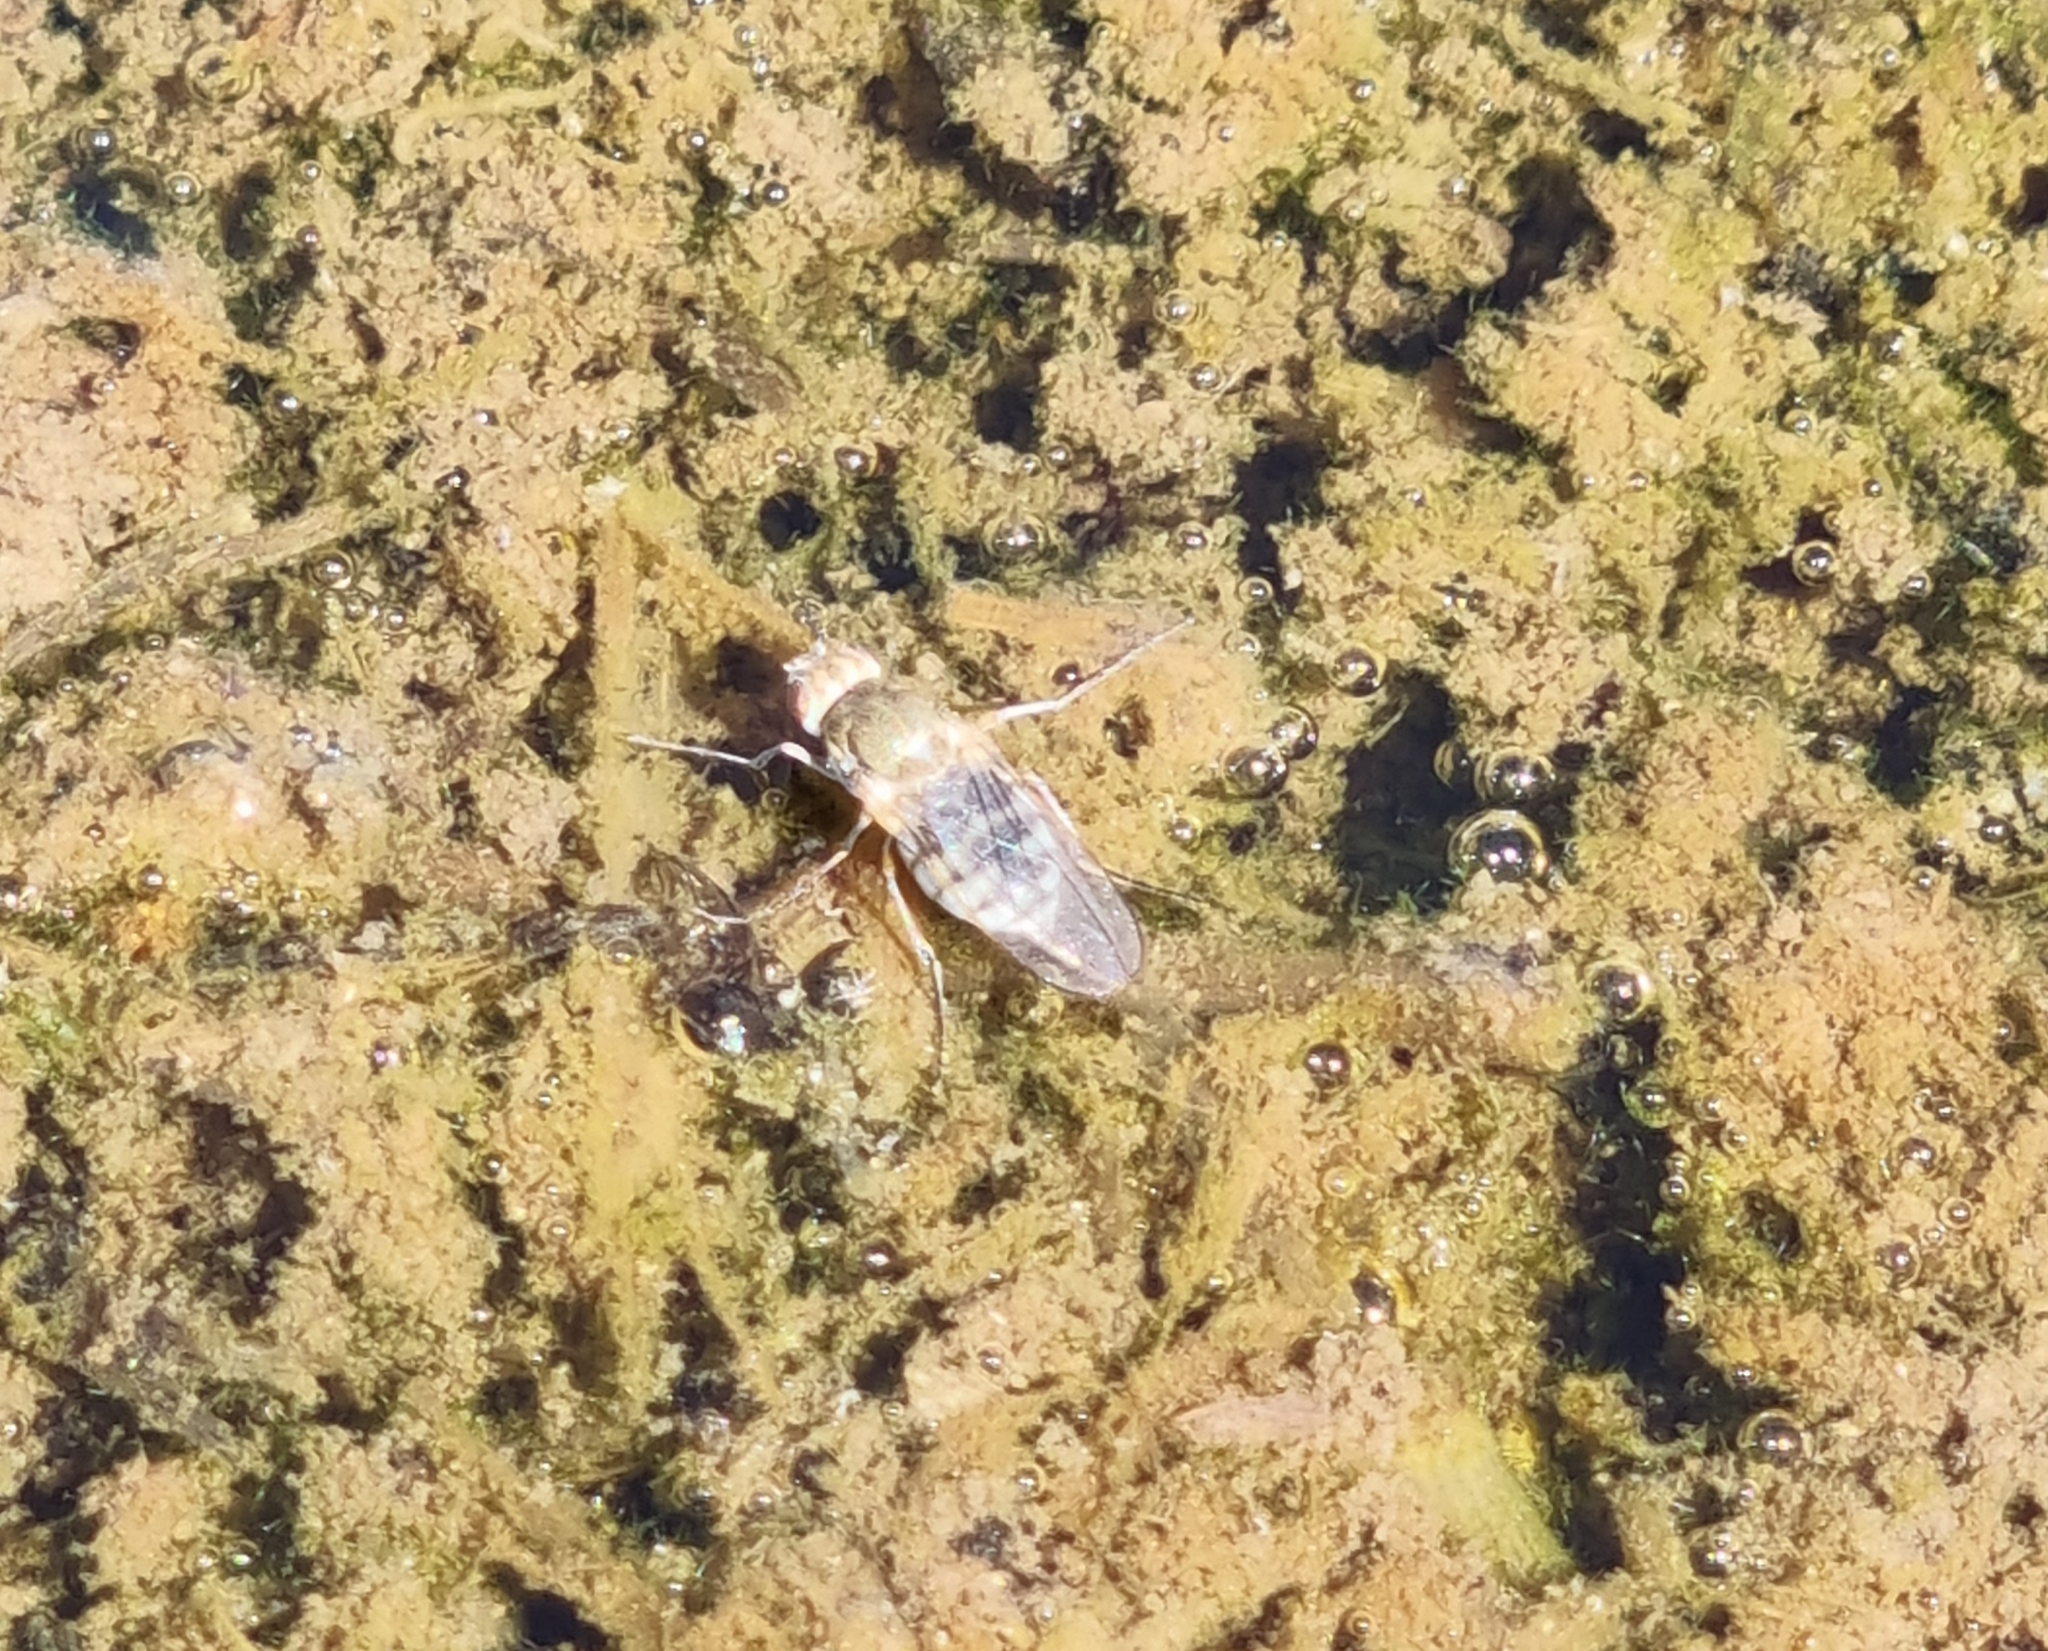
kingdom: Animalia
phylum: Arthropoda
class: Insecta
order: Diptera
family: Ephydridae
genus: Brachydeutera
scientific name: Brachydeutera sydneyensis
